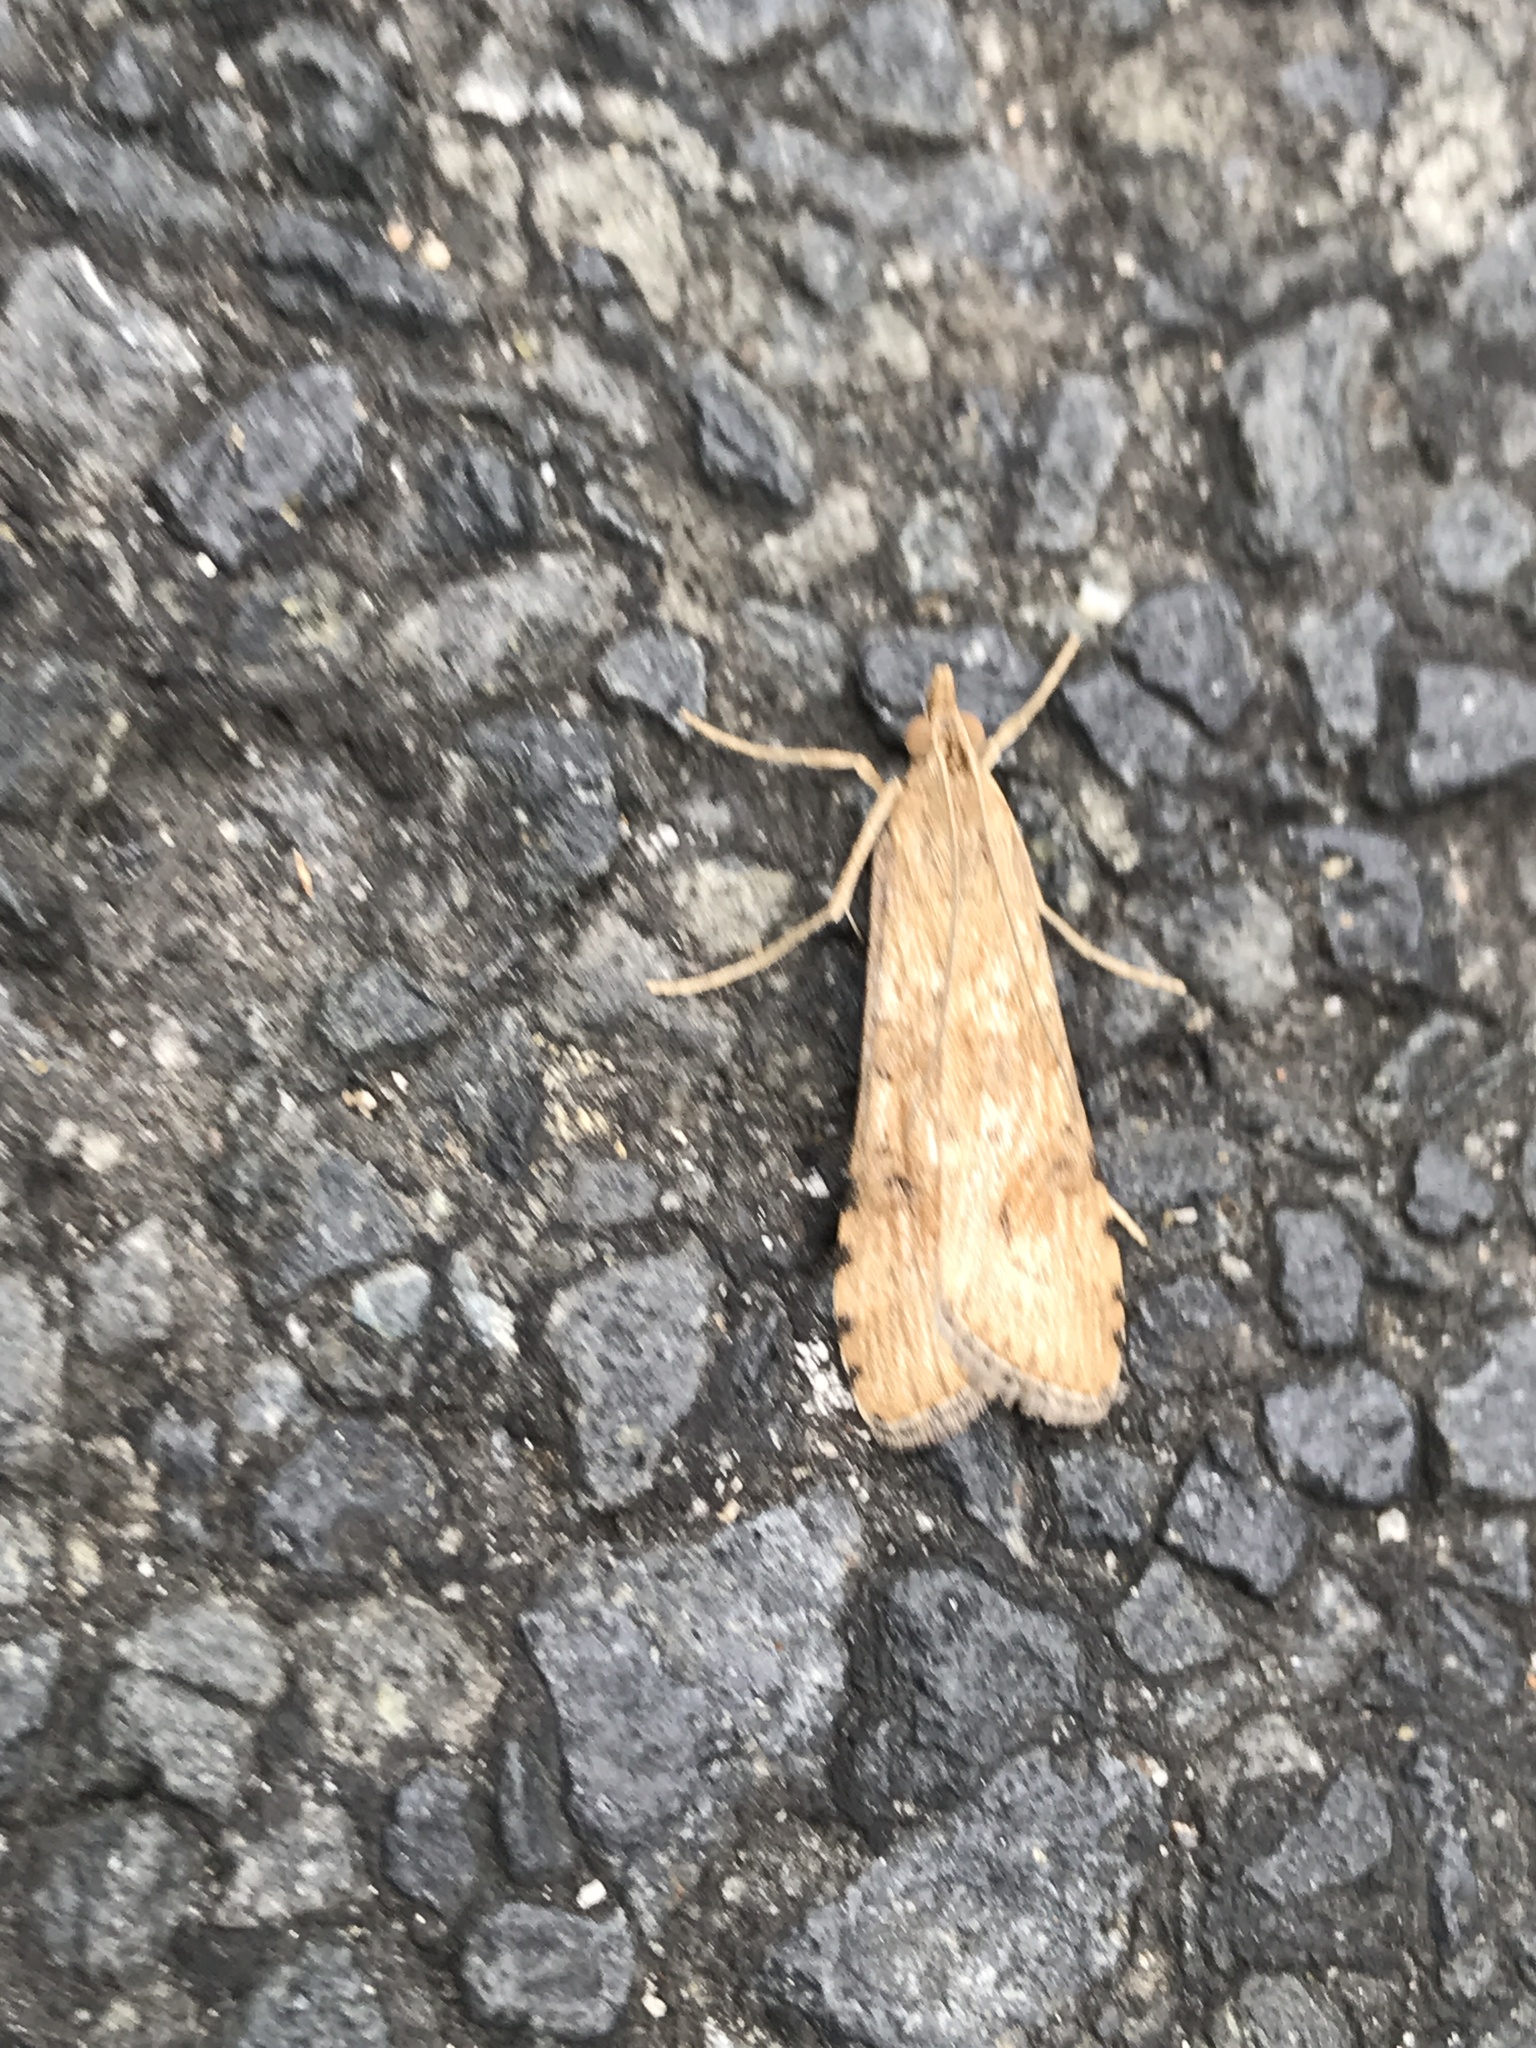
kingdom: Animalia
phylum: Arthropoda
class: Insecta
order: Lepidoptera
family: Crambidae
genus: Nomophila
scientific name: Nomophila nearctica
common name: American rush veneer
